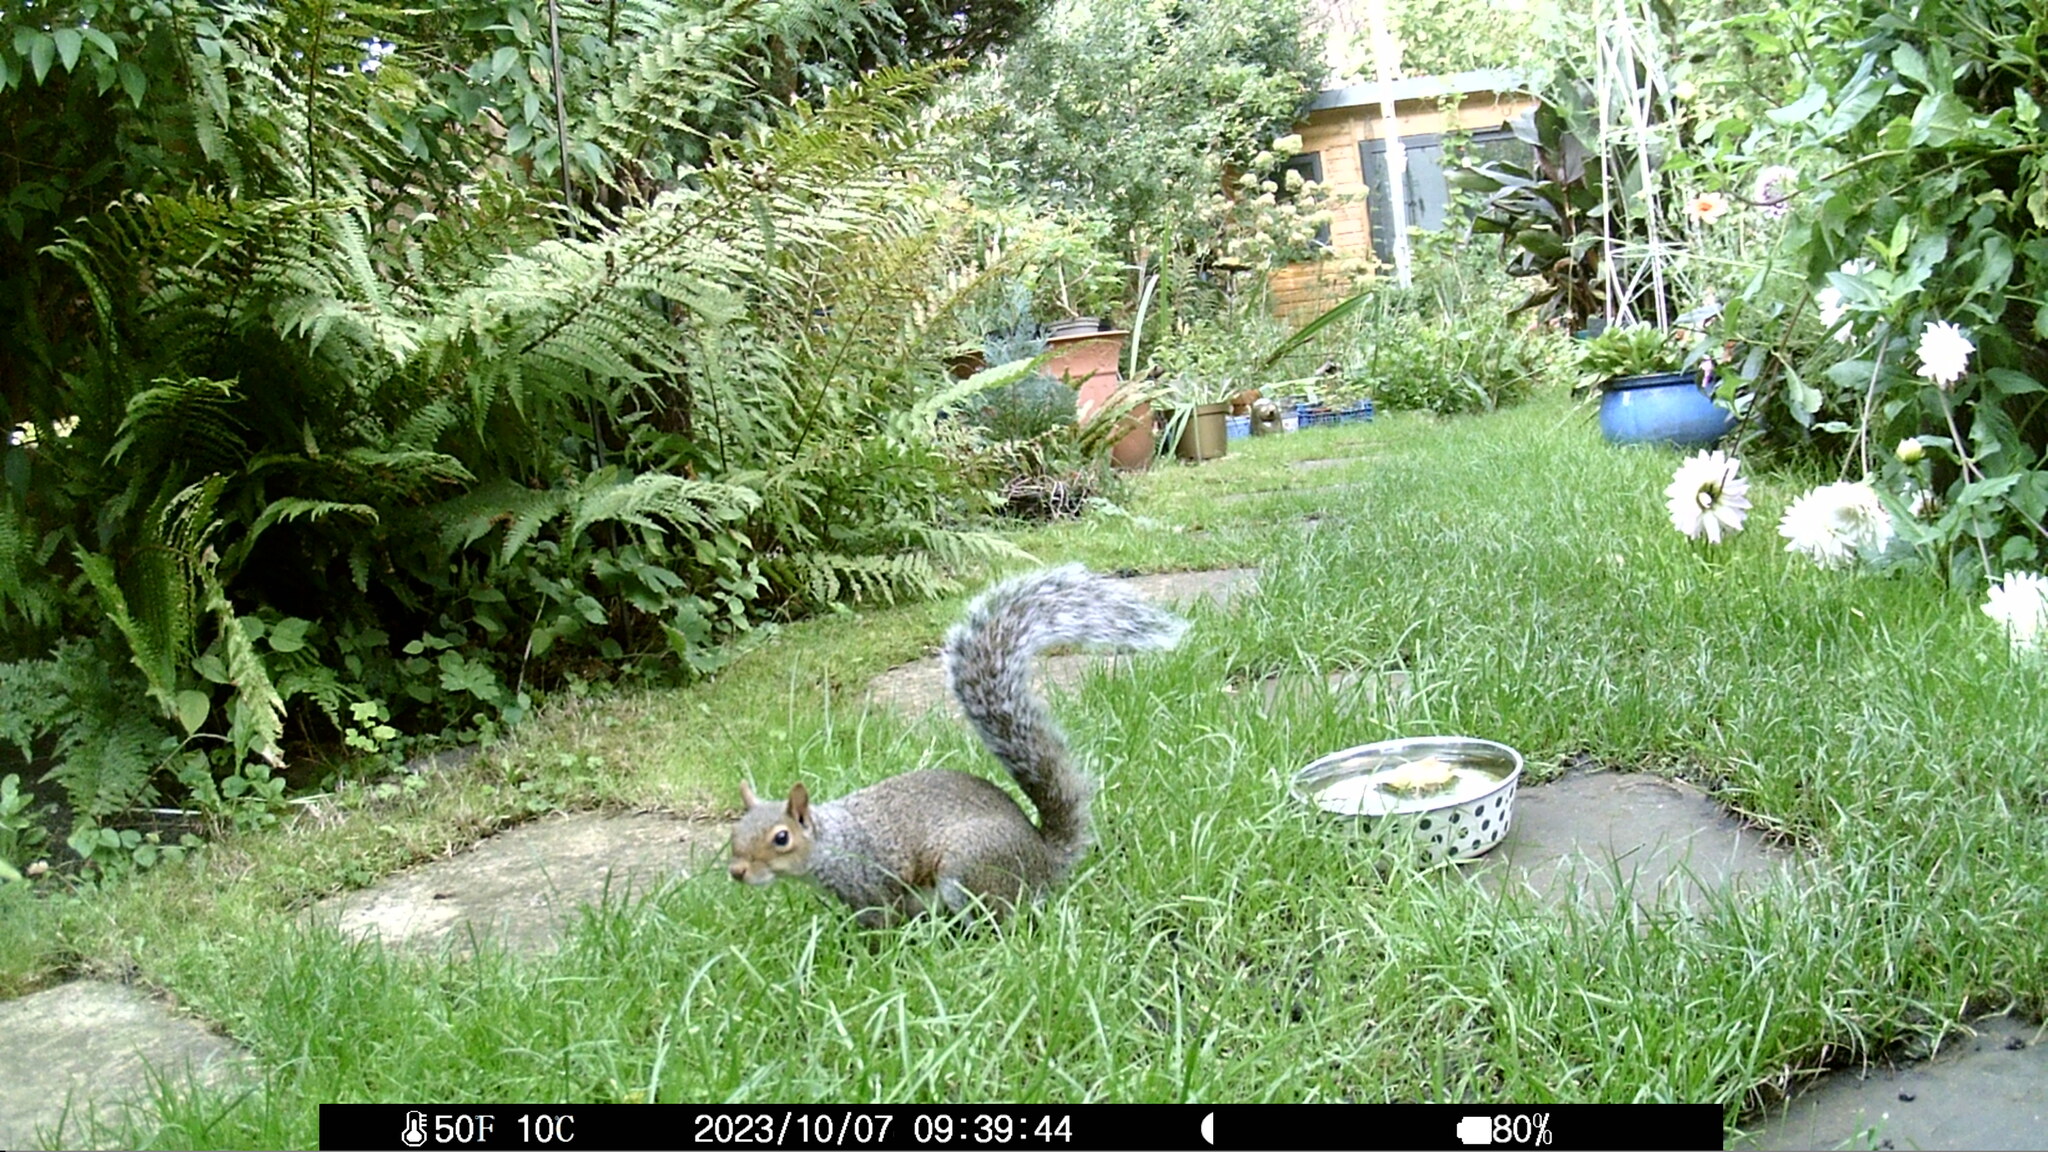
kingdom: Animalia
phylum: Chordata
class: Mammalia
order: Rodentia
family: Sciuridae
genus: Sciurus
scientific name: Sciurus carolinensis
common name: Eastern gray squirrel
